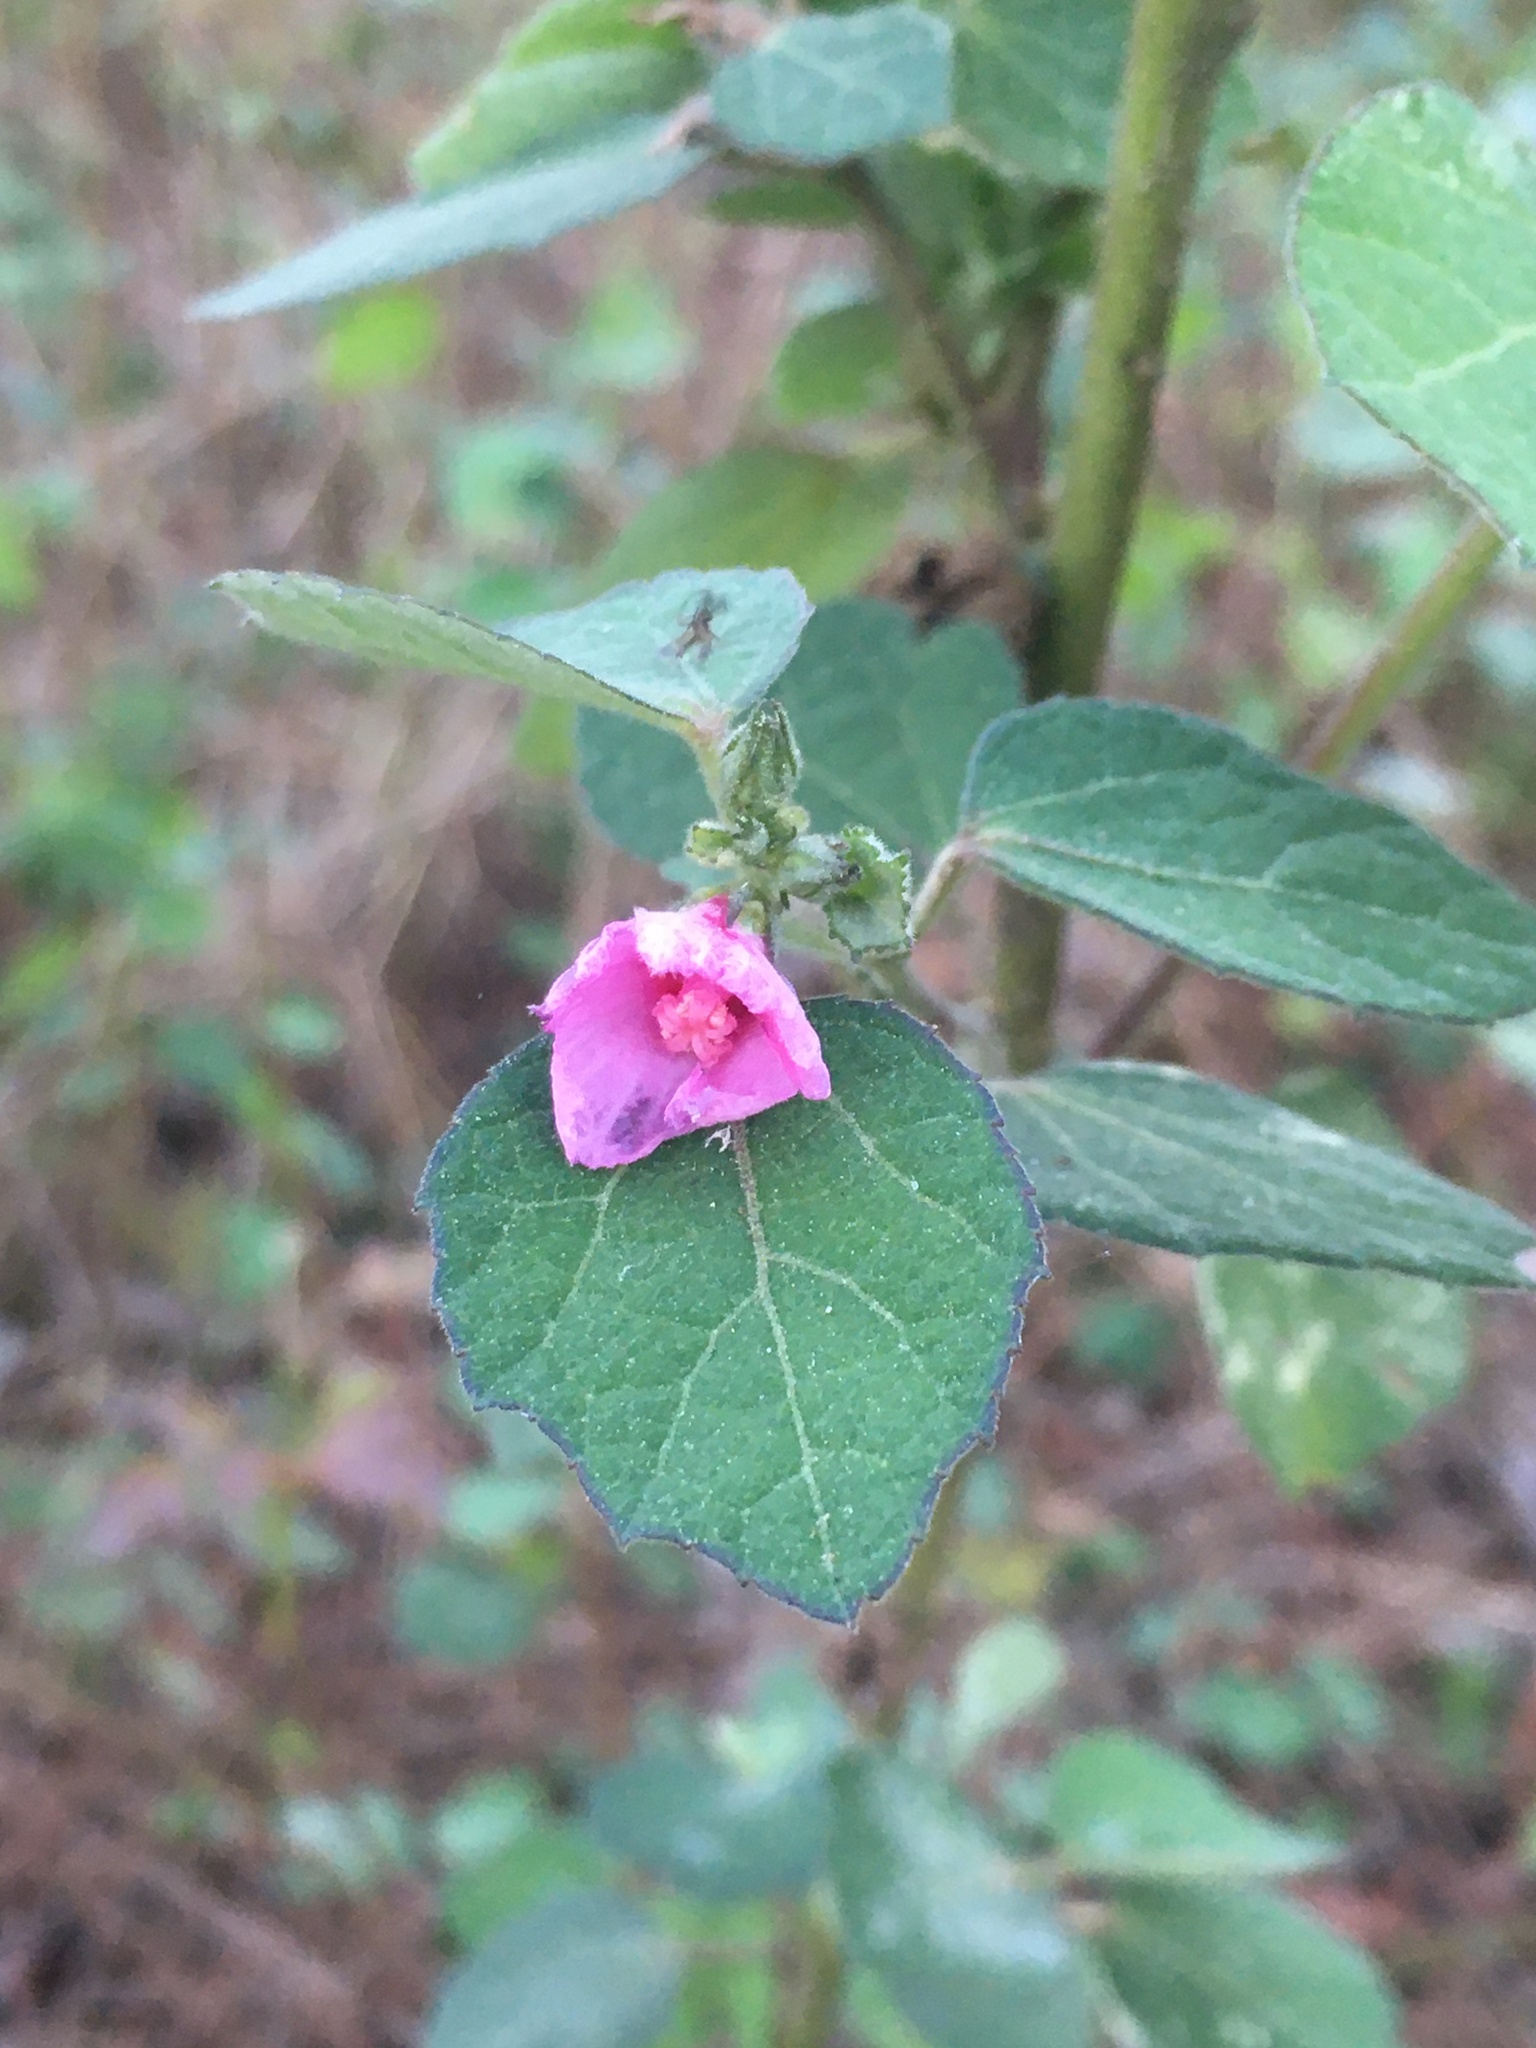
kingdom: Plantae
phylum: Tracheophyta
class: Magnoliopsida
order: Malvales
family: Malvaceae
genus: Urena
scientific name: Urena lobata
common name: Caesarweed
